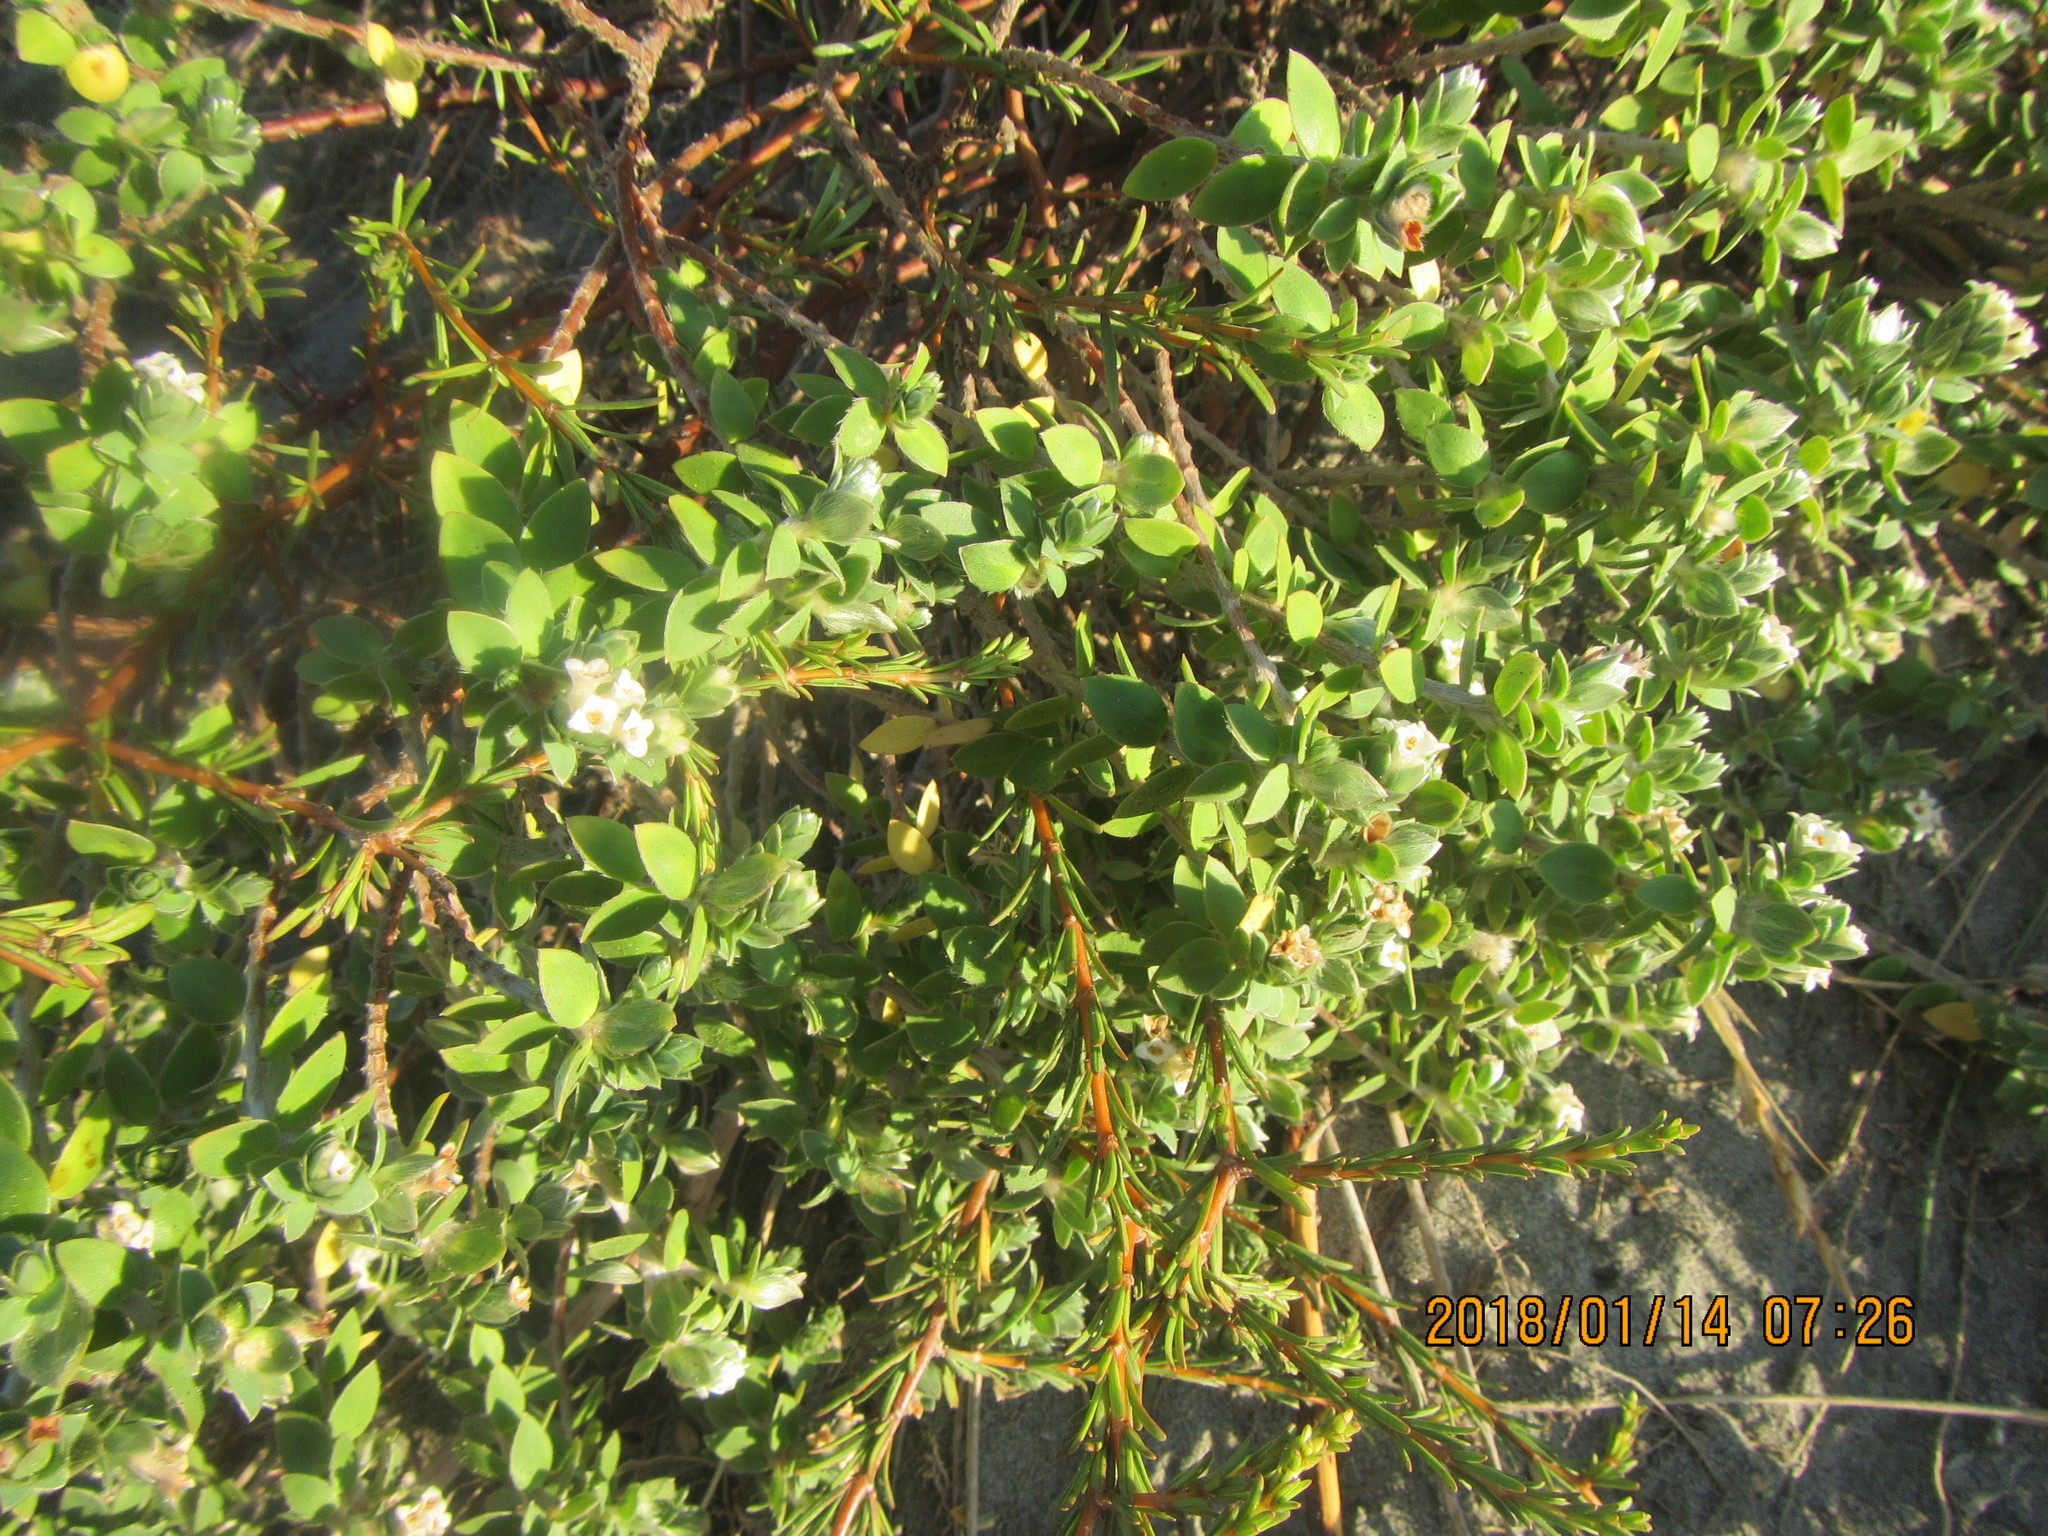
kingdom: Plantae
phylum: Tracheophyta
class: Magnoliopsida
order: Malvales
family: Thymelaeaceae
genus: Pimelea
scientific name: Pimelea villosa
